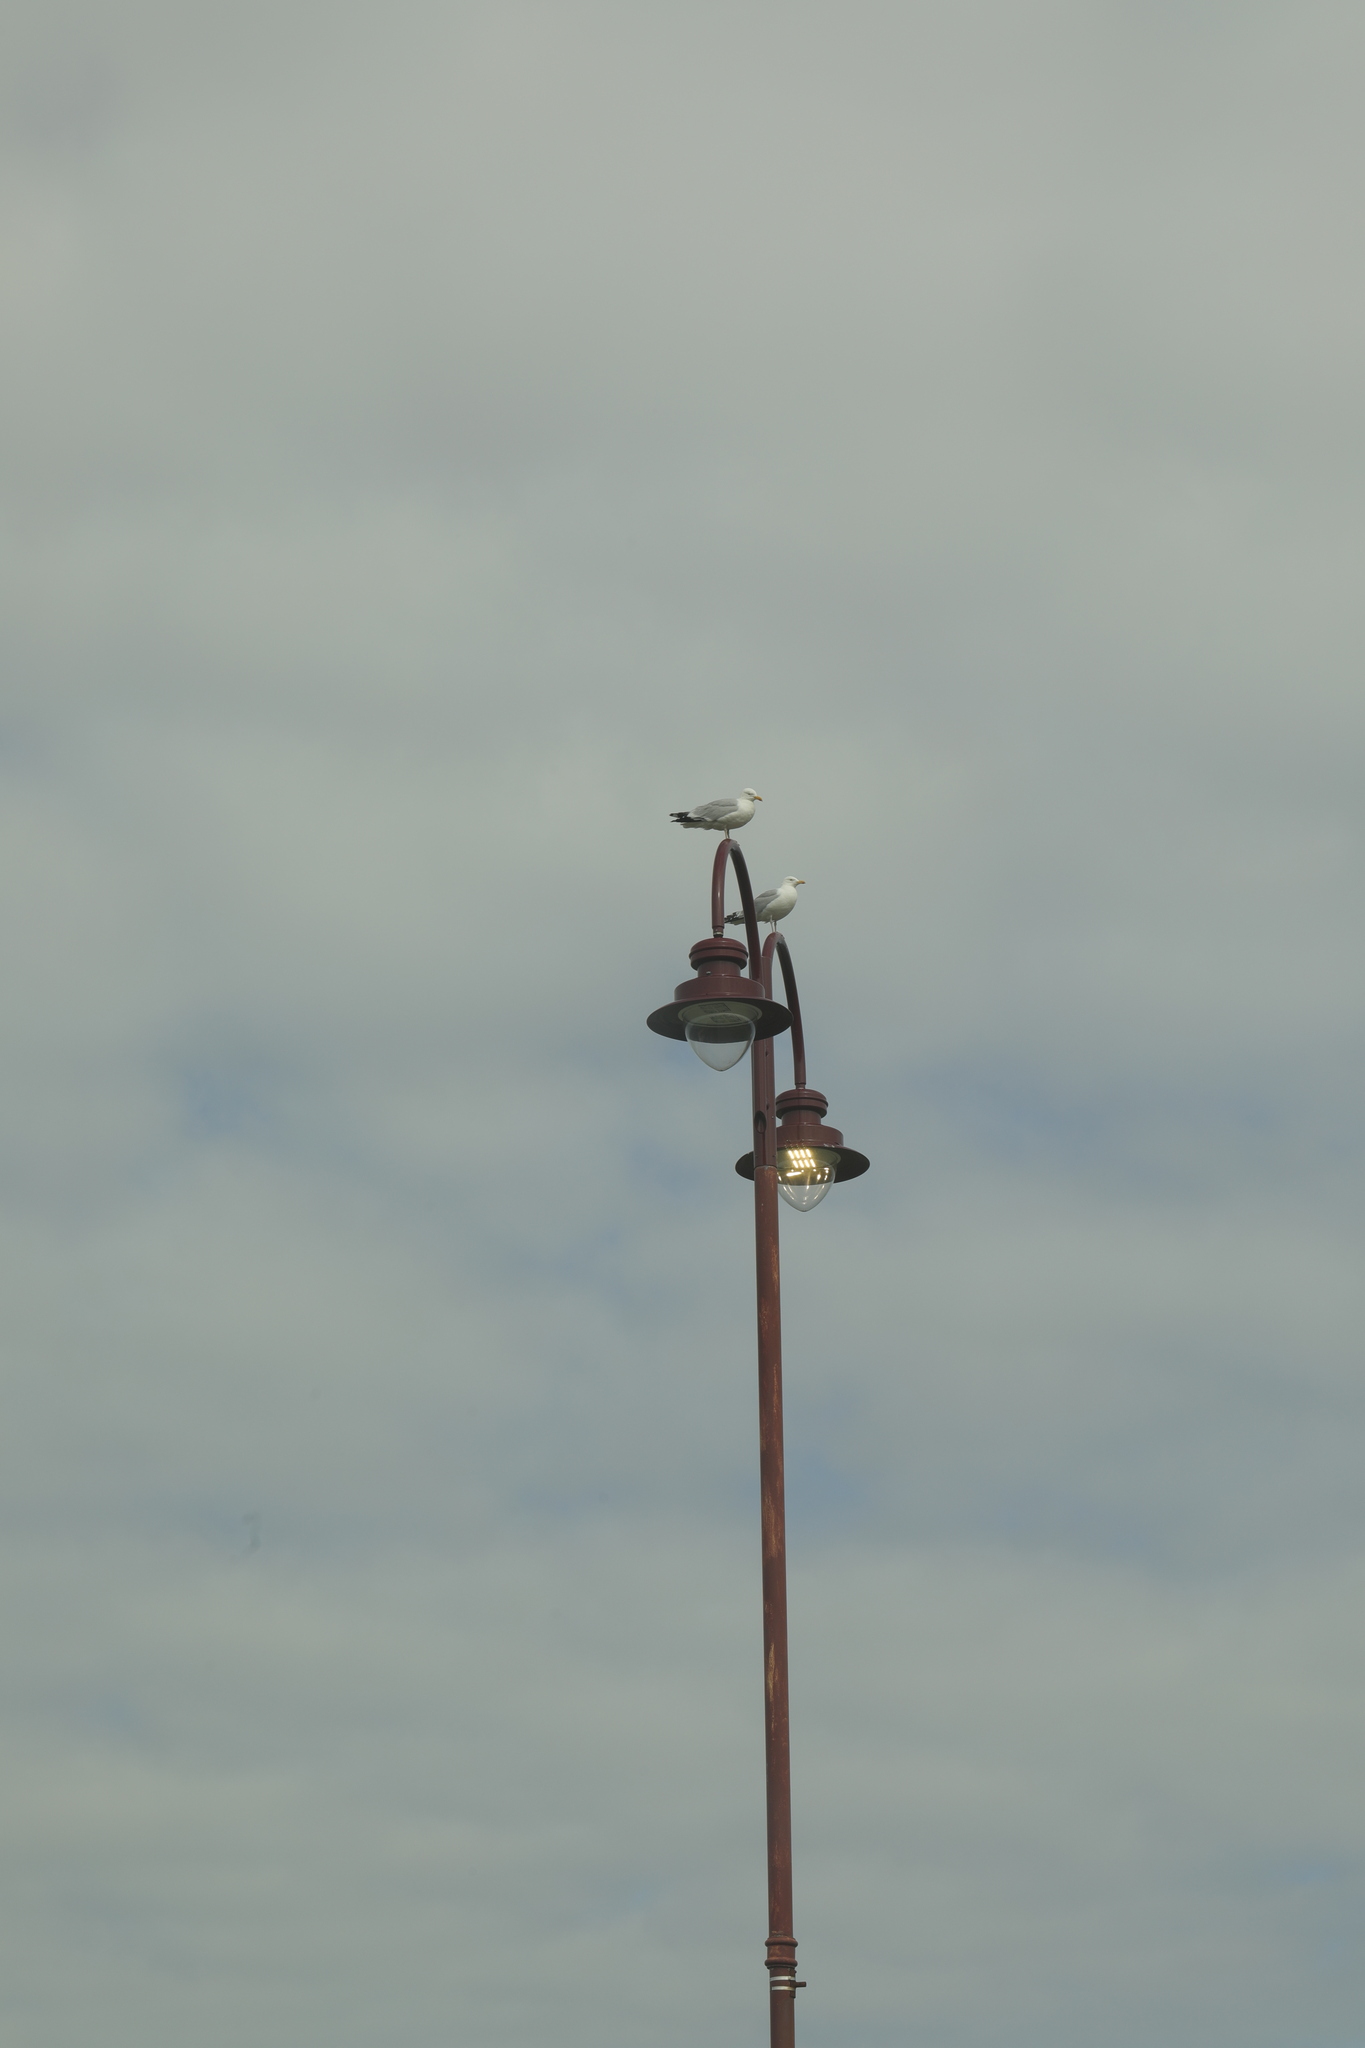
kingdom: Animalia
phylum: Chordata
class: Aves
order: Charadriiformes
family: Laridae
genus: Larus
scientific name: Larus argentatus
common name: Herring gull
